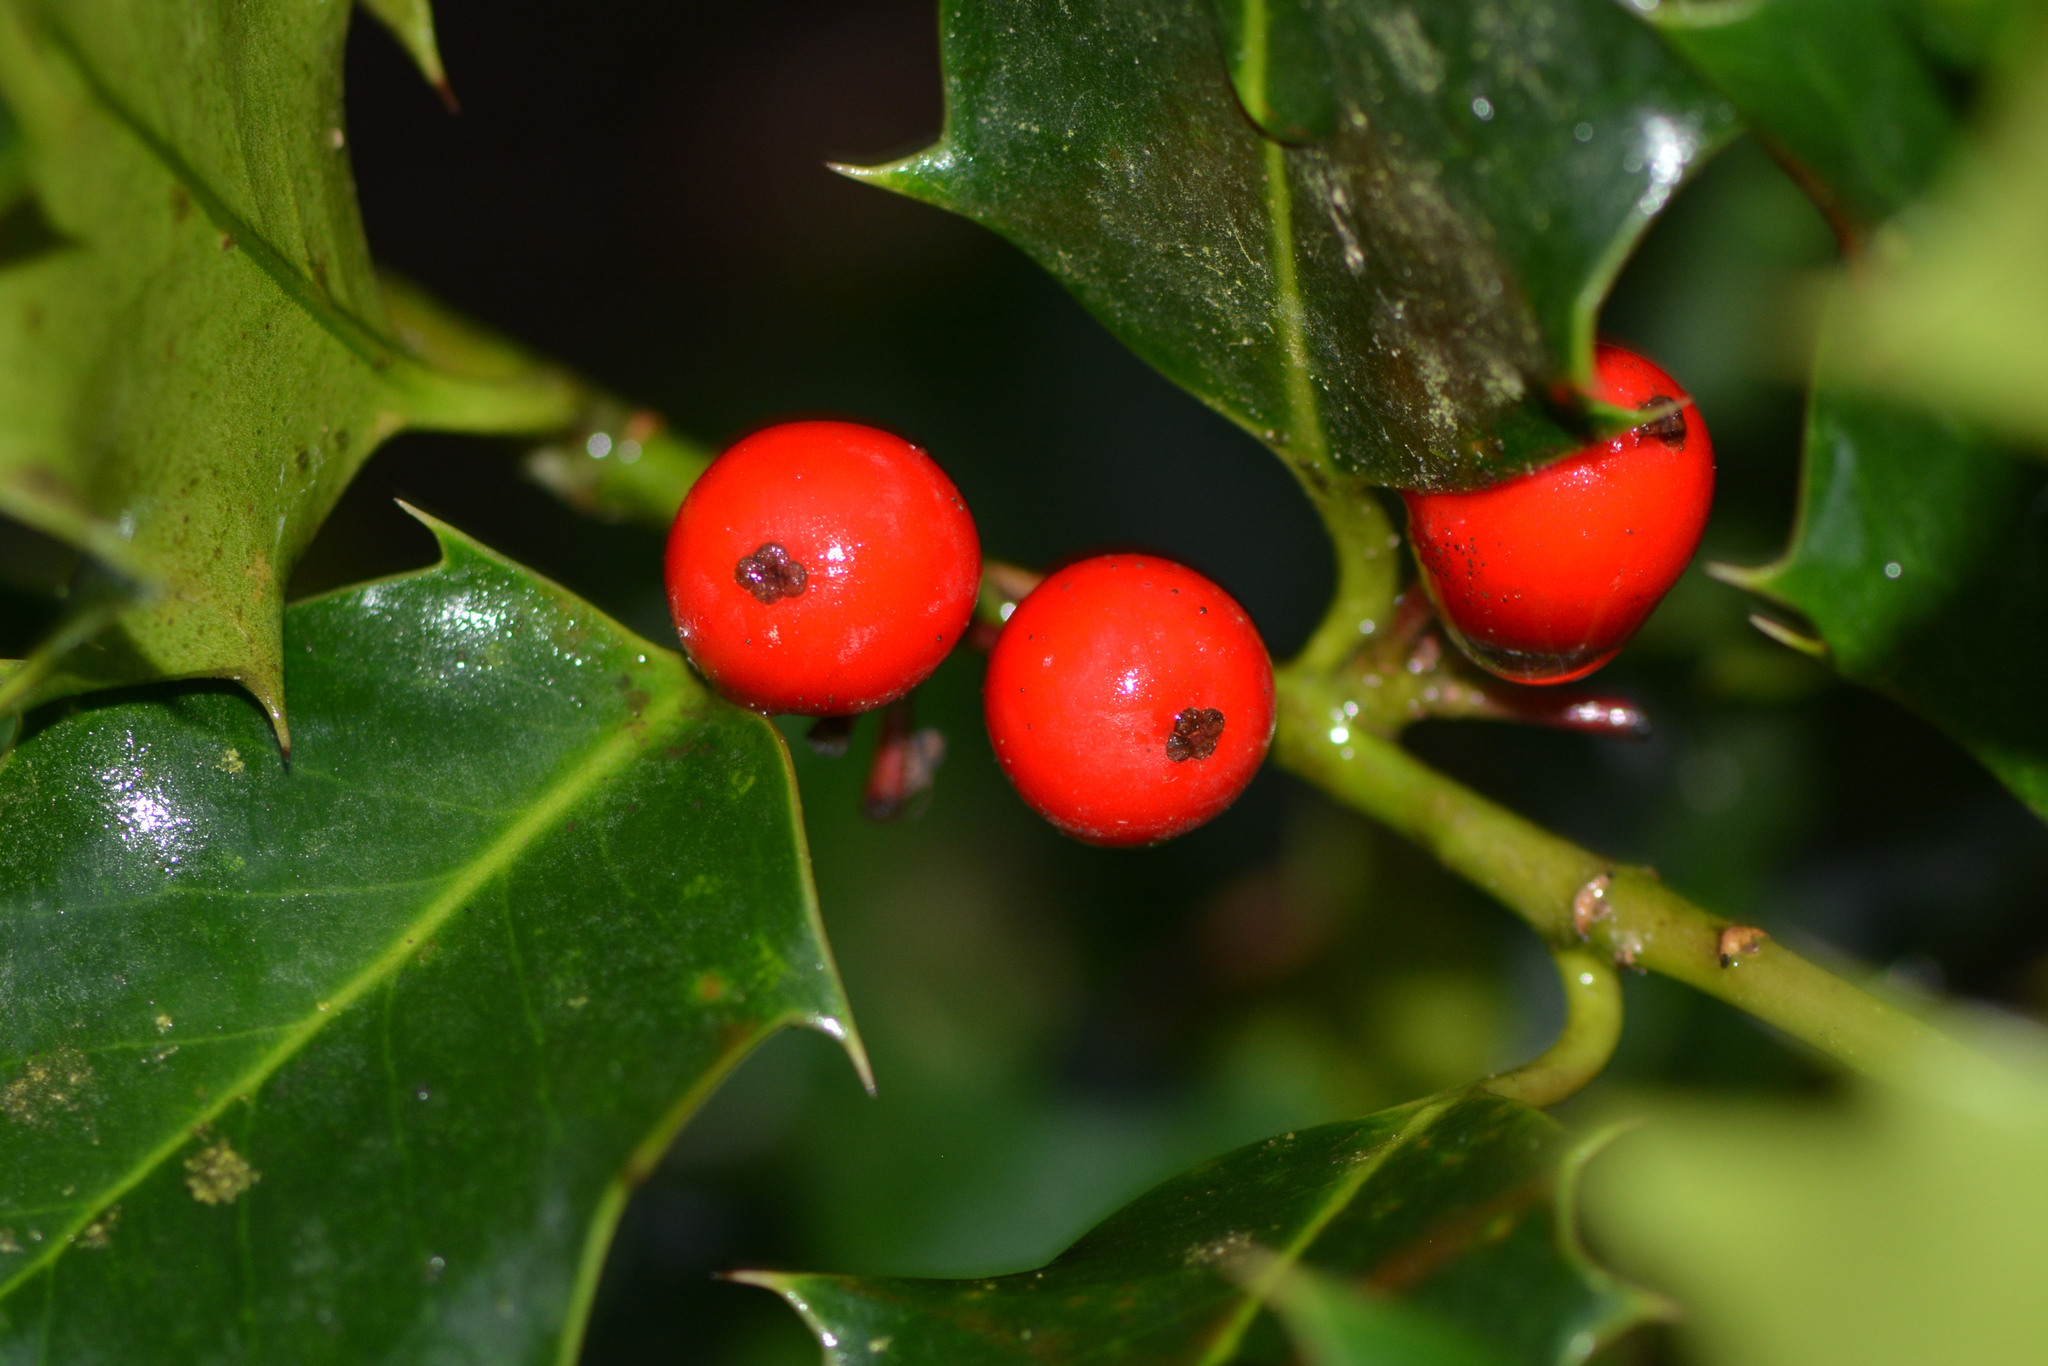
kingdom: Plantae
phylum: Tracheophyta
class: Magnoliopsida
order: Aquifoliales
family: Aquifoliaceae
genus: Ilex
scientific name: Ilex aquifolium
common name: English holly
